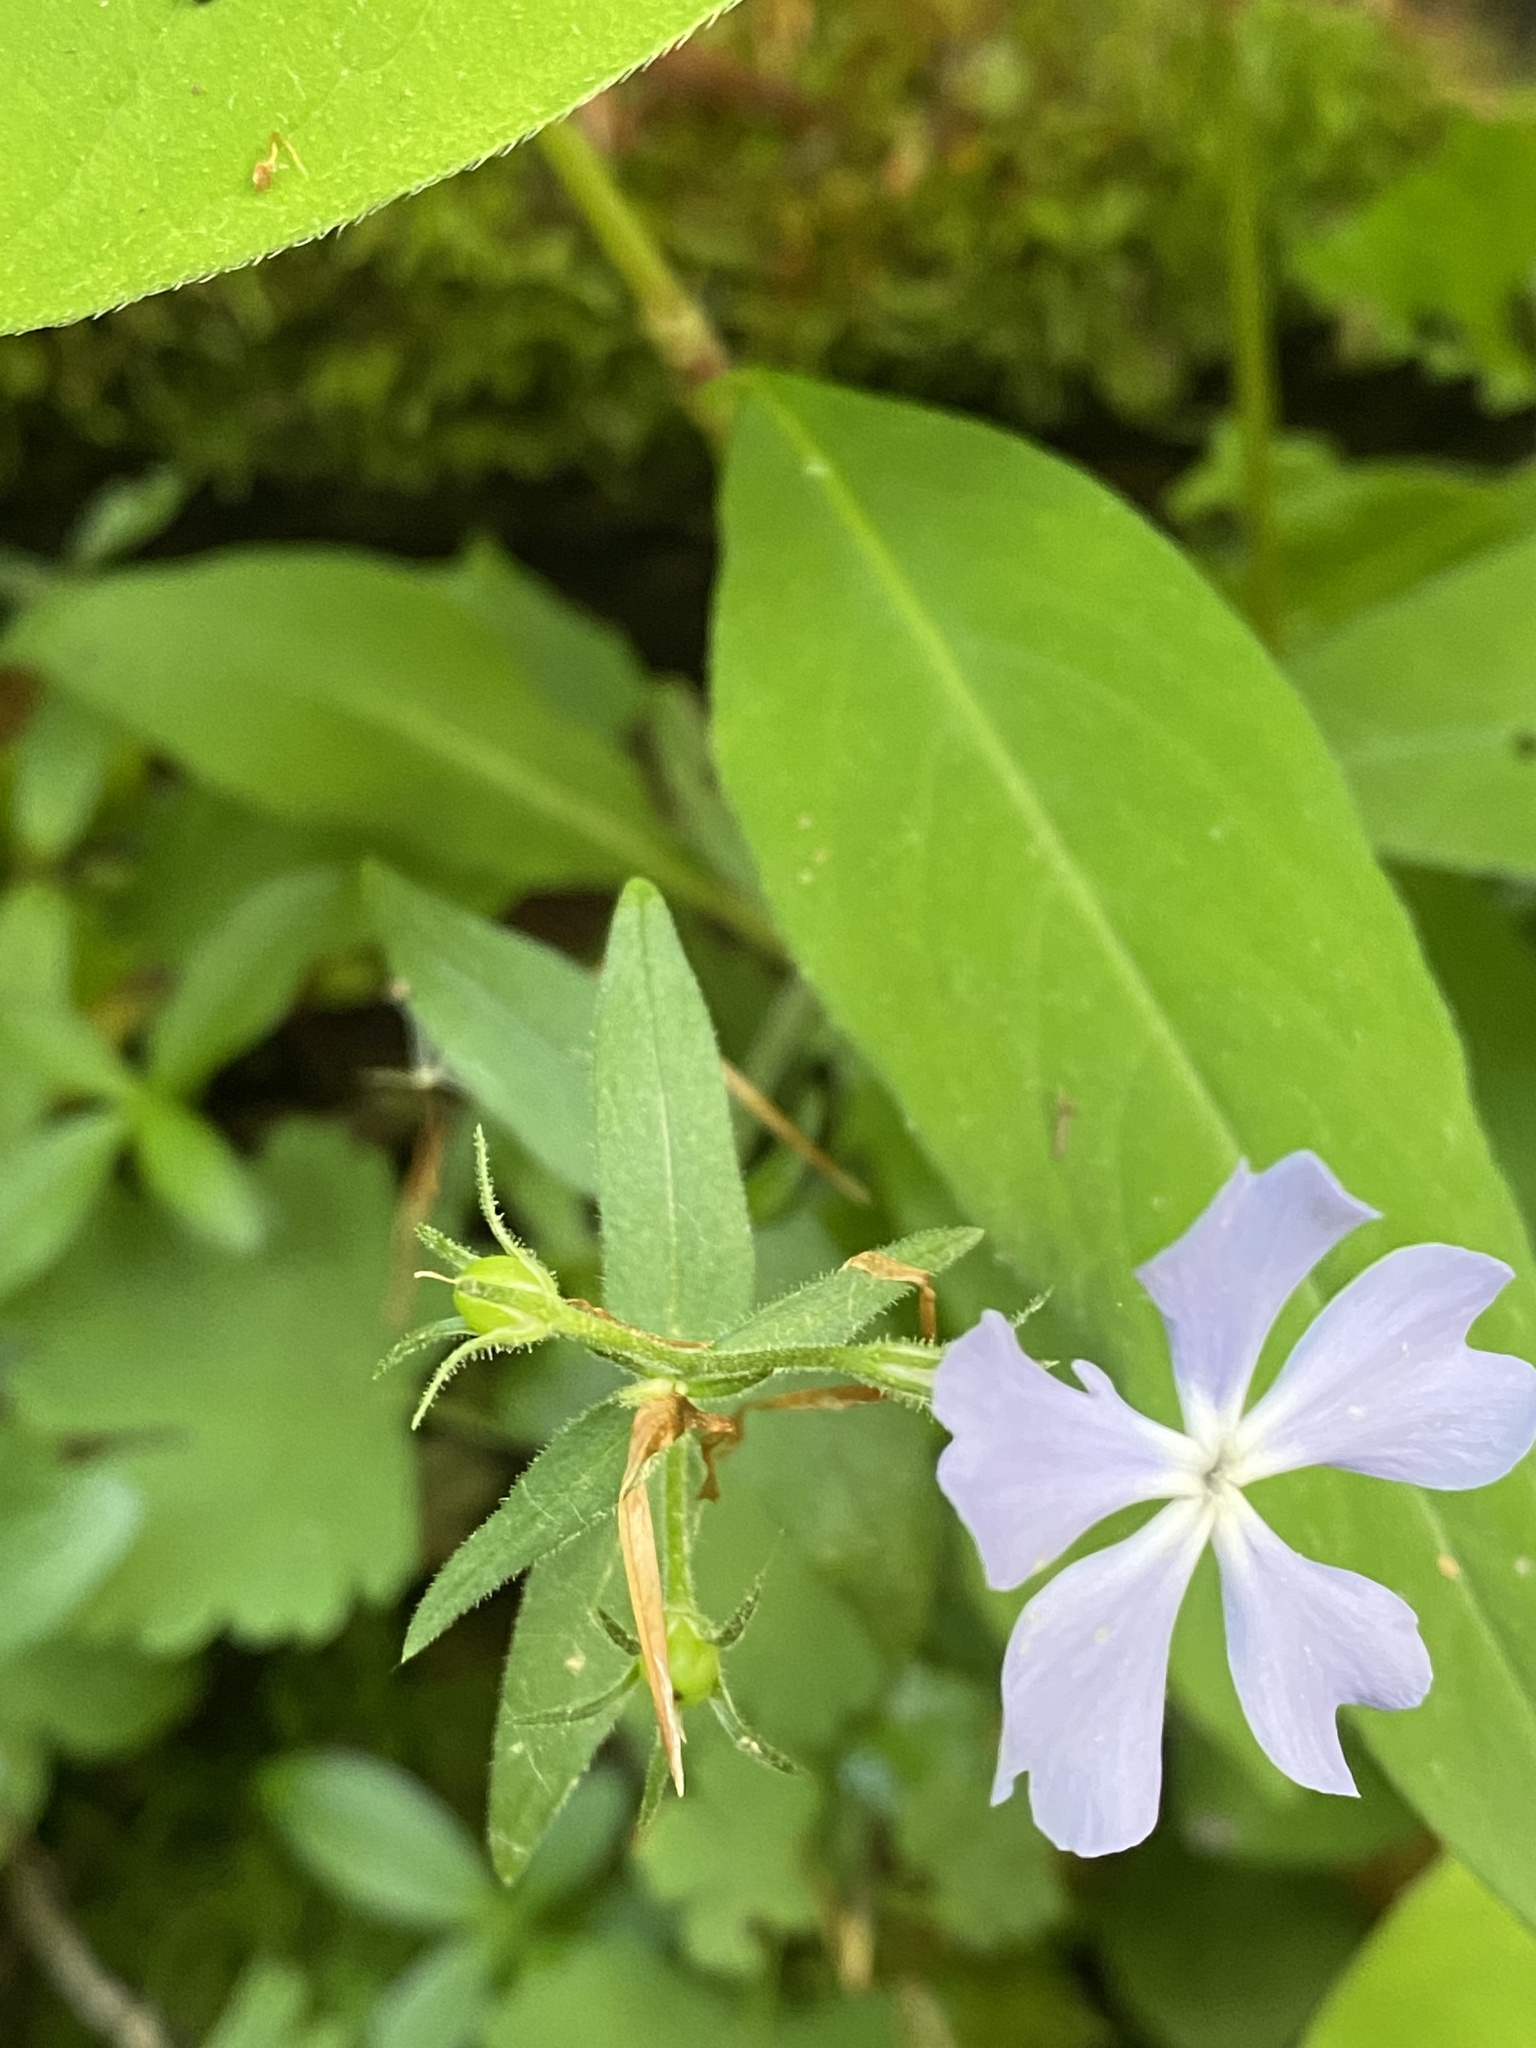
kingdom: Plantae
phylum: Tracheophyta
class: Magnoliopsida
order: Ericales
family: Polemoniaceae
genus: Phlox
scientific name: Phlox divaricata
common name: Blue phlox
